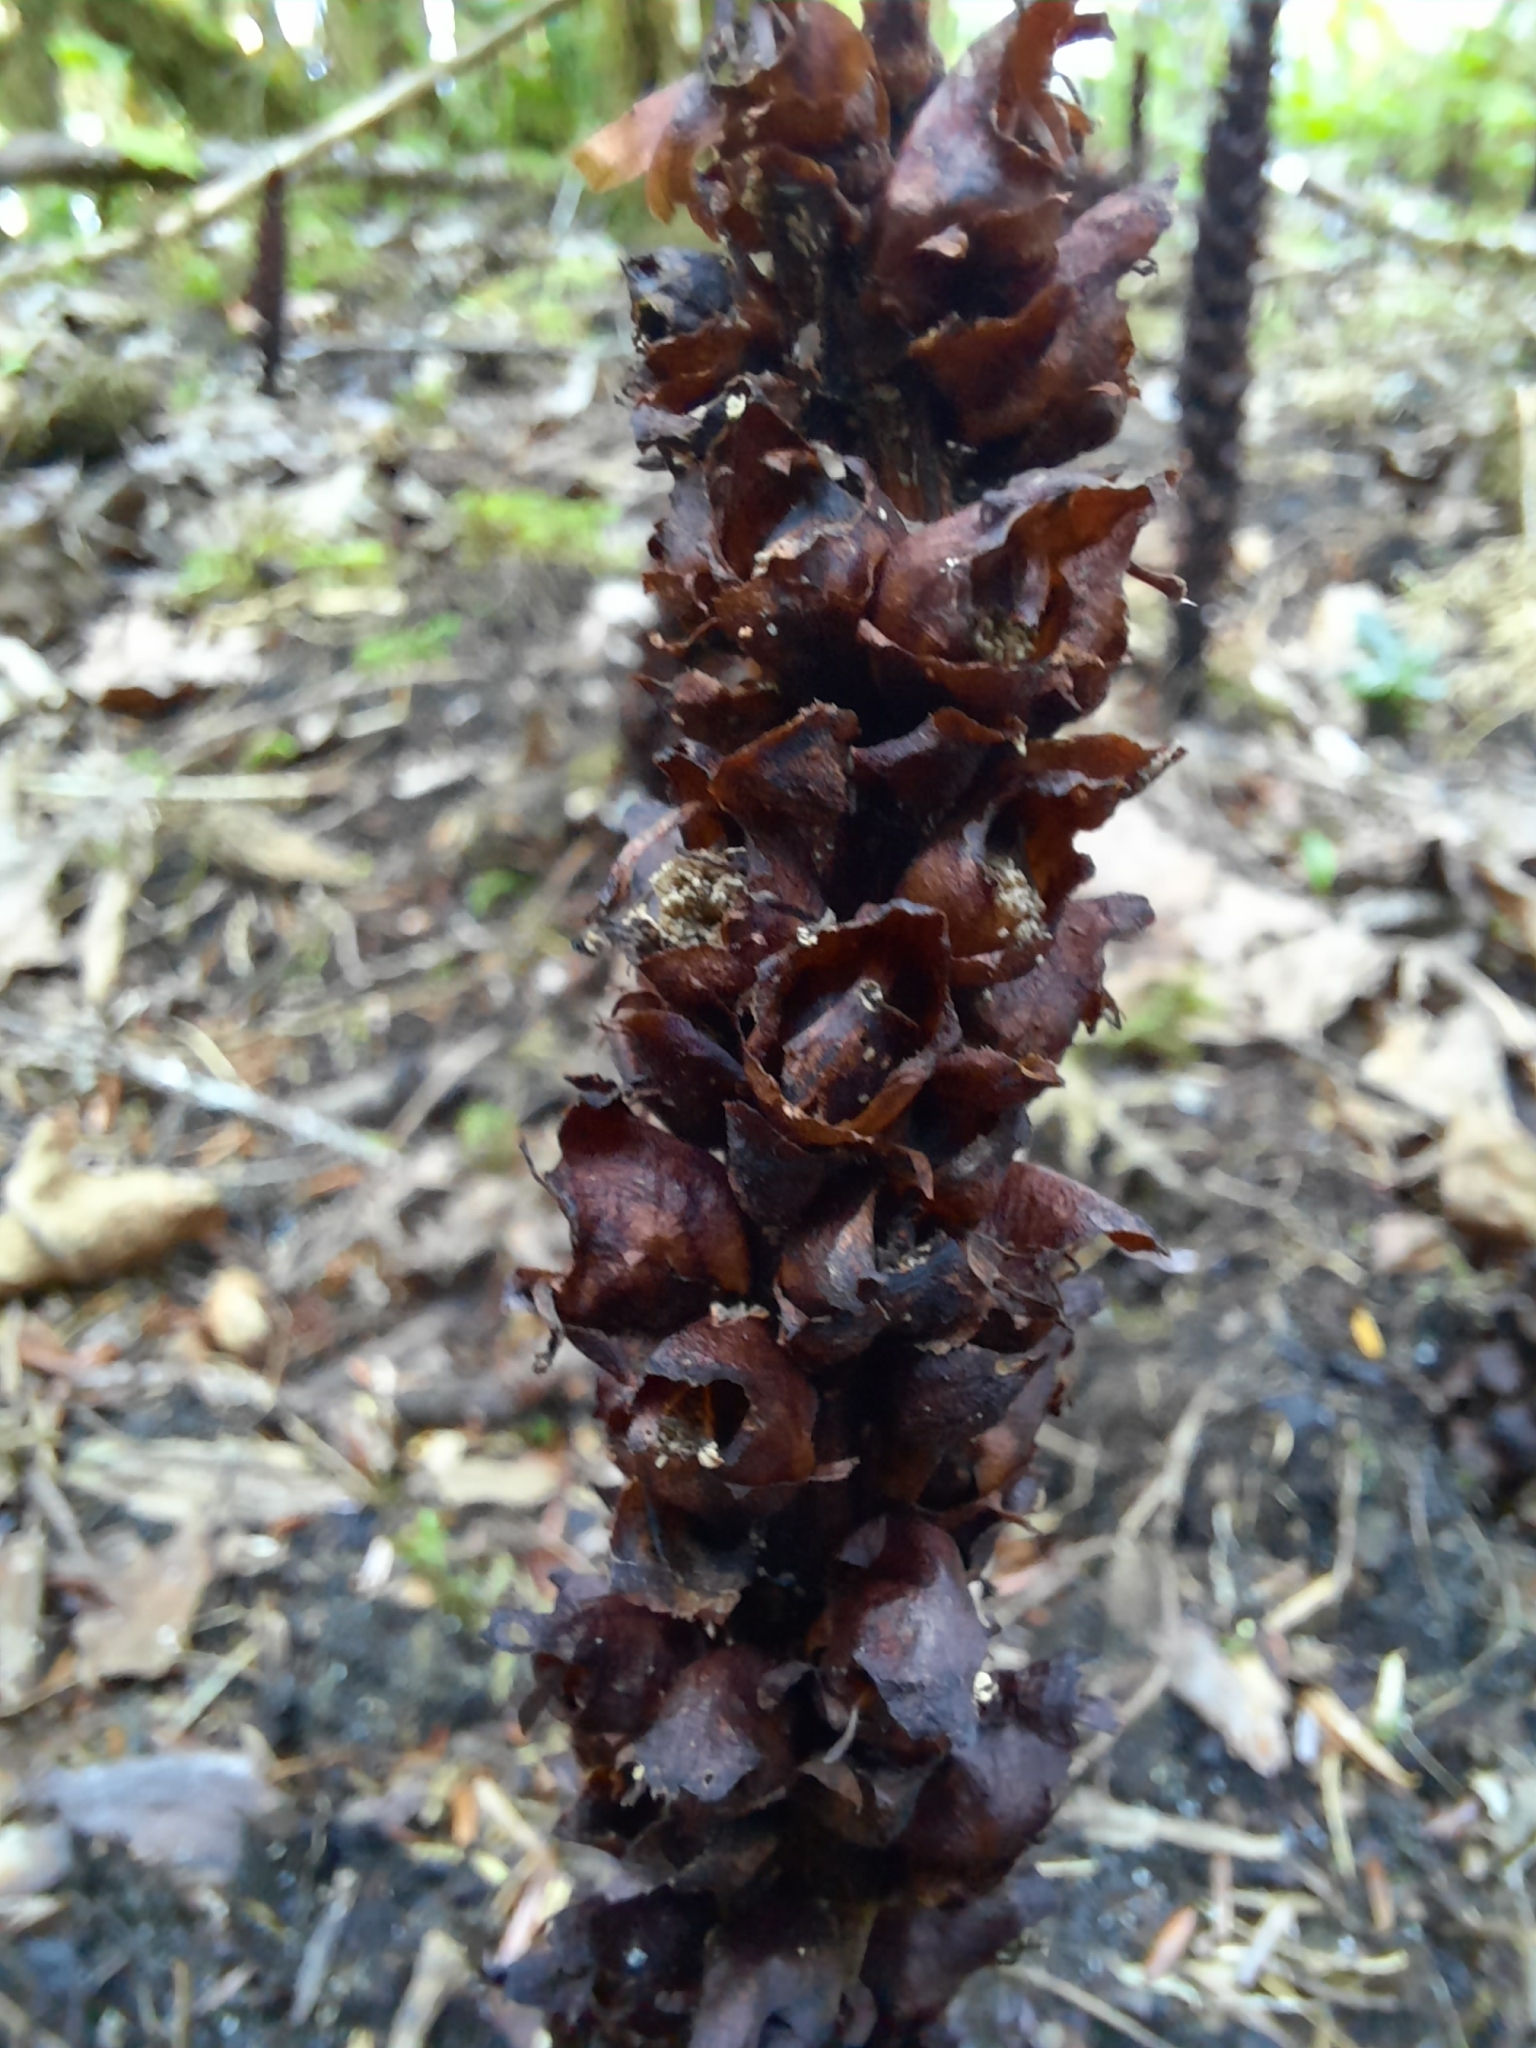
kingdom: Plantae
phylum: Tracheophyta
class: Magnoliopsida
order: Lamiales
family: Orobanchaceae
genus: Boschniakia
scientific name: Boschniakia rossica
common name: Poque
